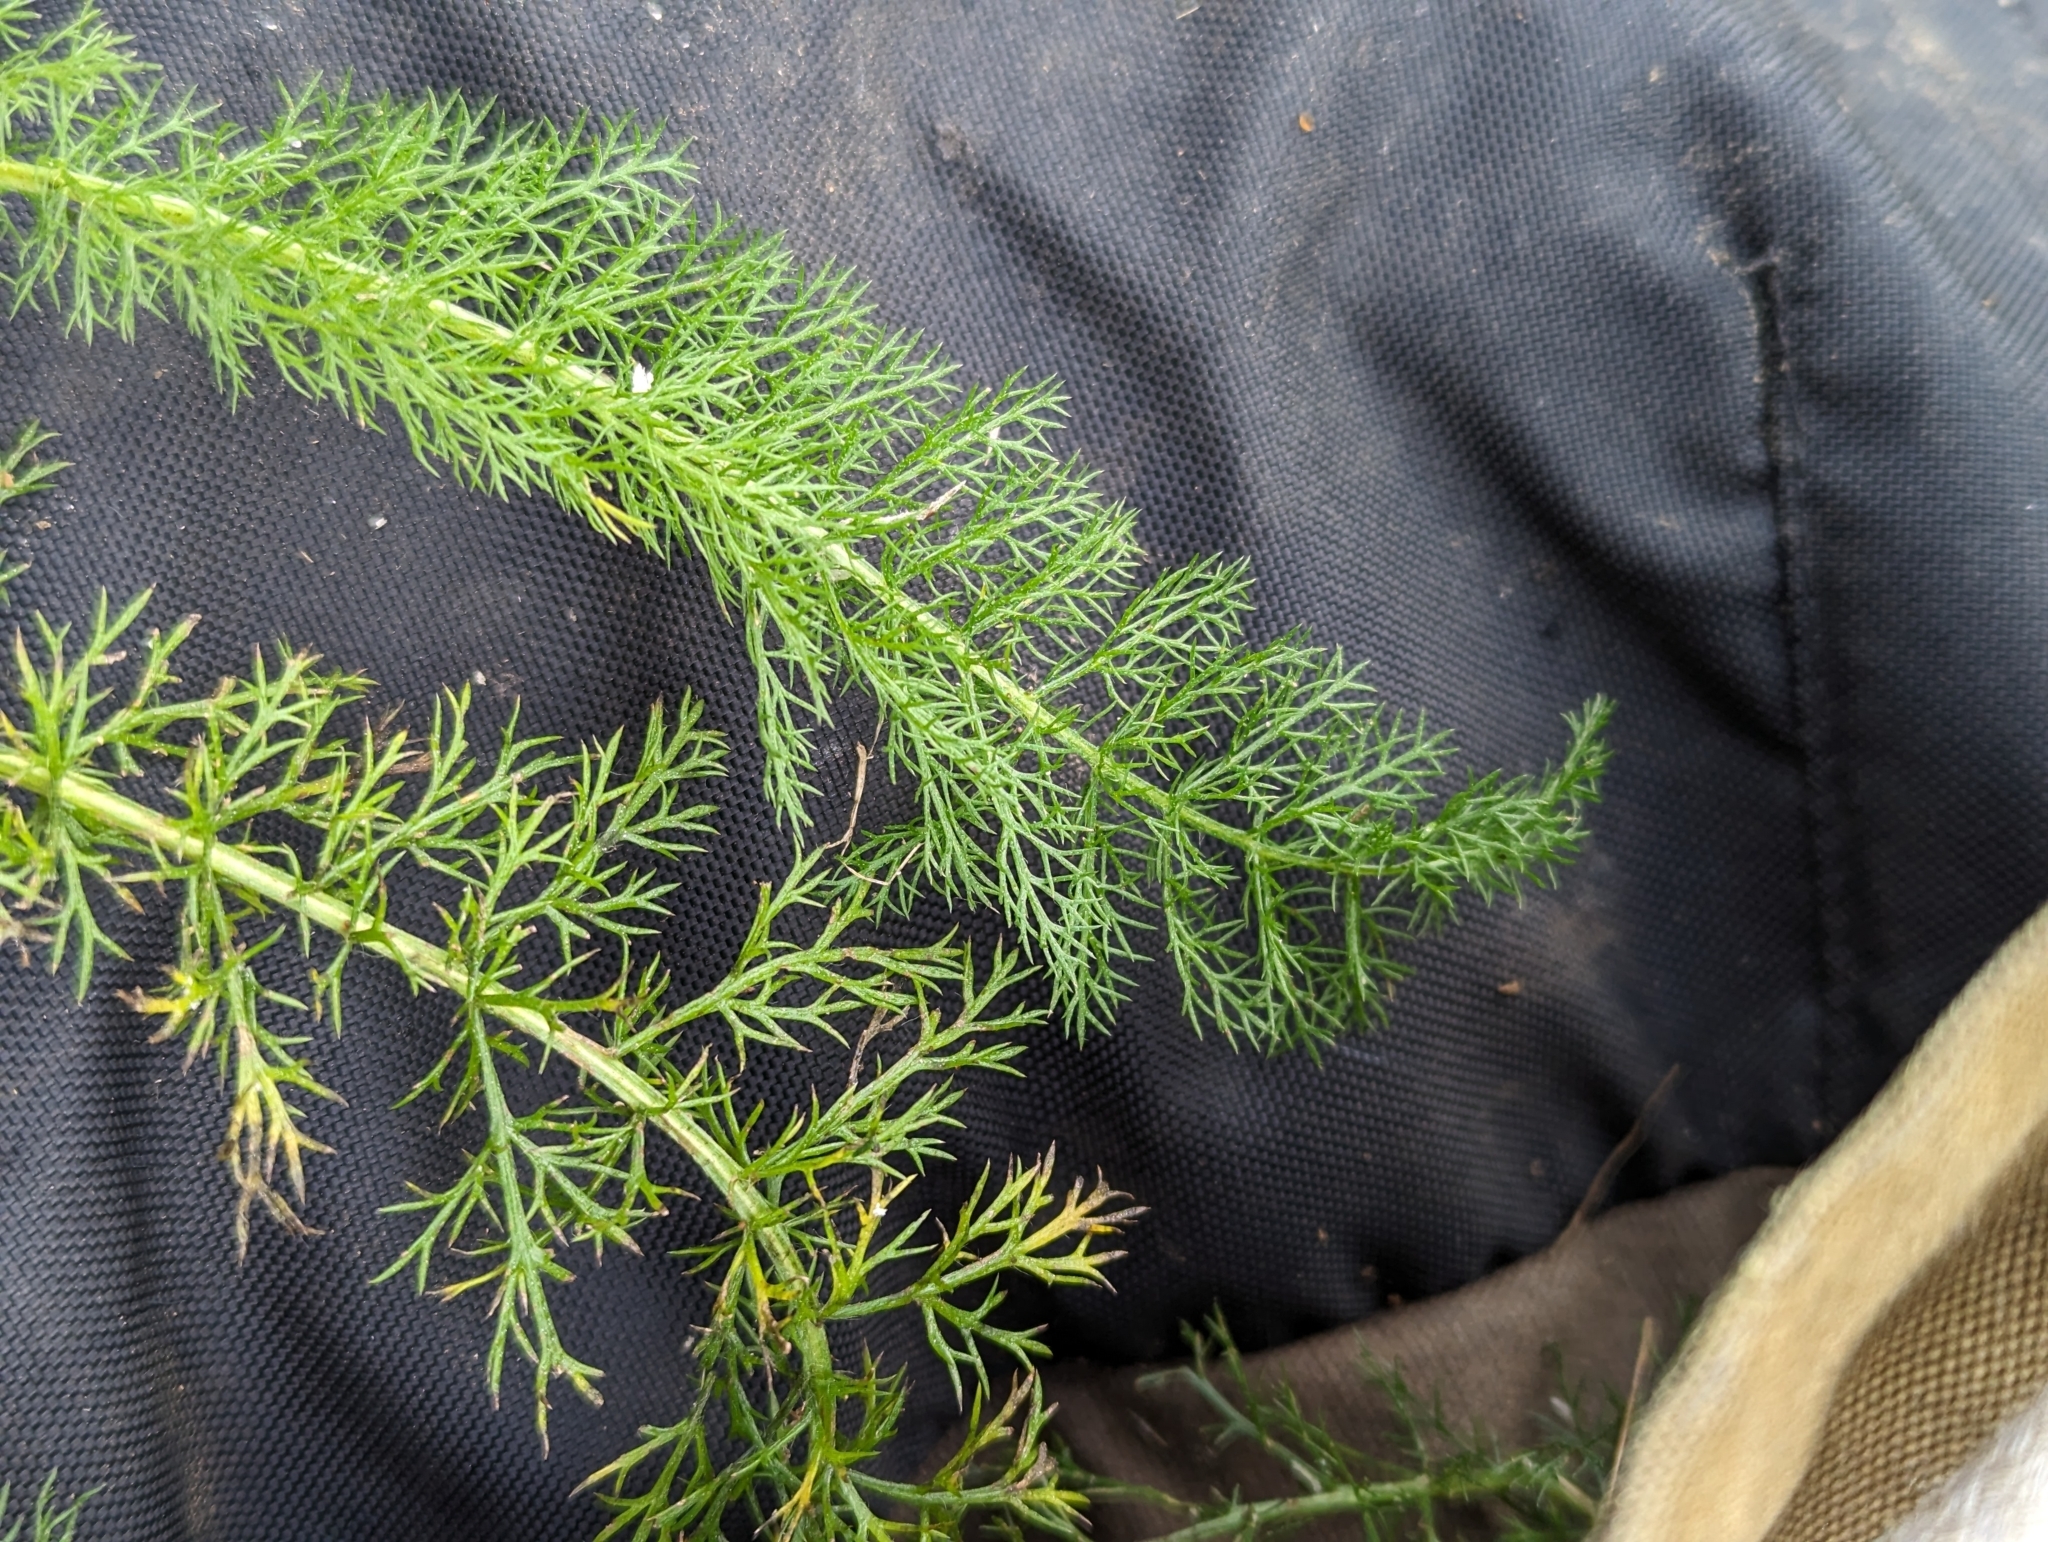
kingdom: Plantae
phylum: Tracheophyta
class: Magnoliopsida
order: Asterales
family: Asteraceae
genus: Achillea
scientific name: Achillea millefolium
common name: Yarrow
